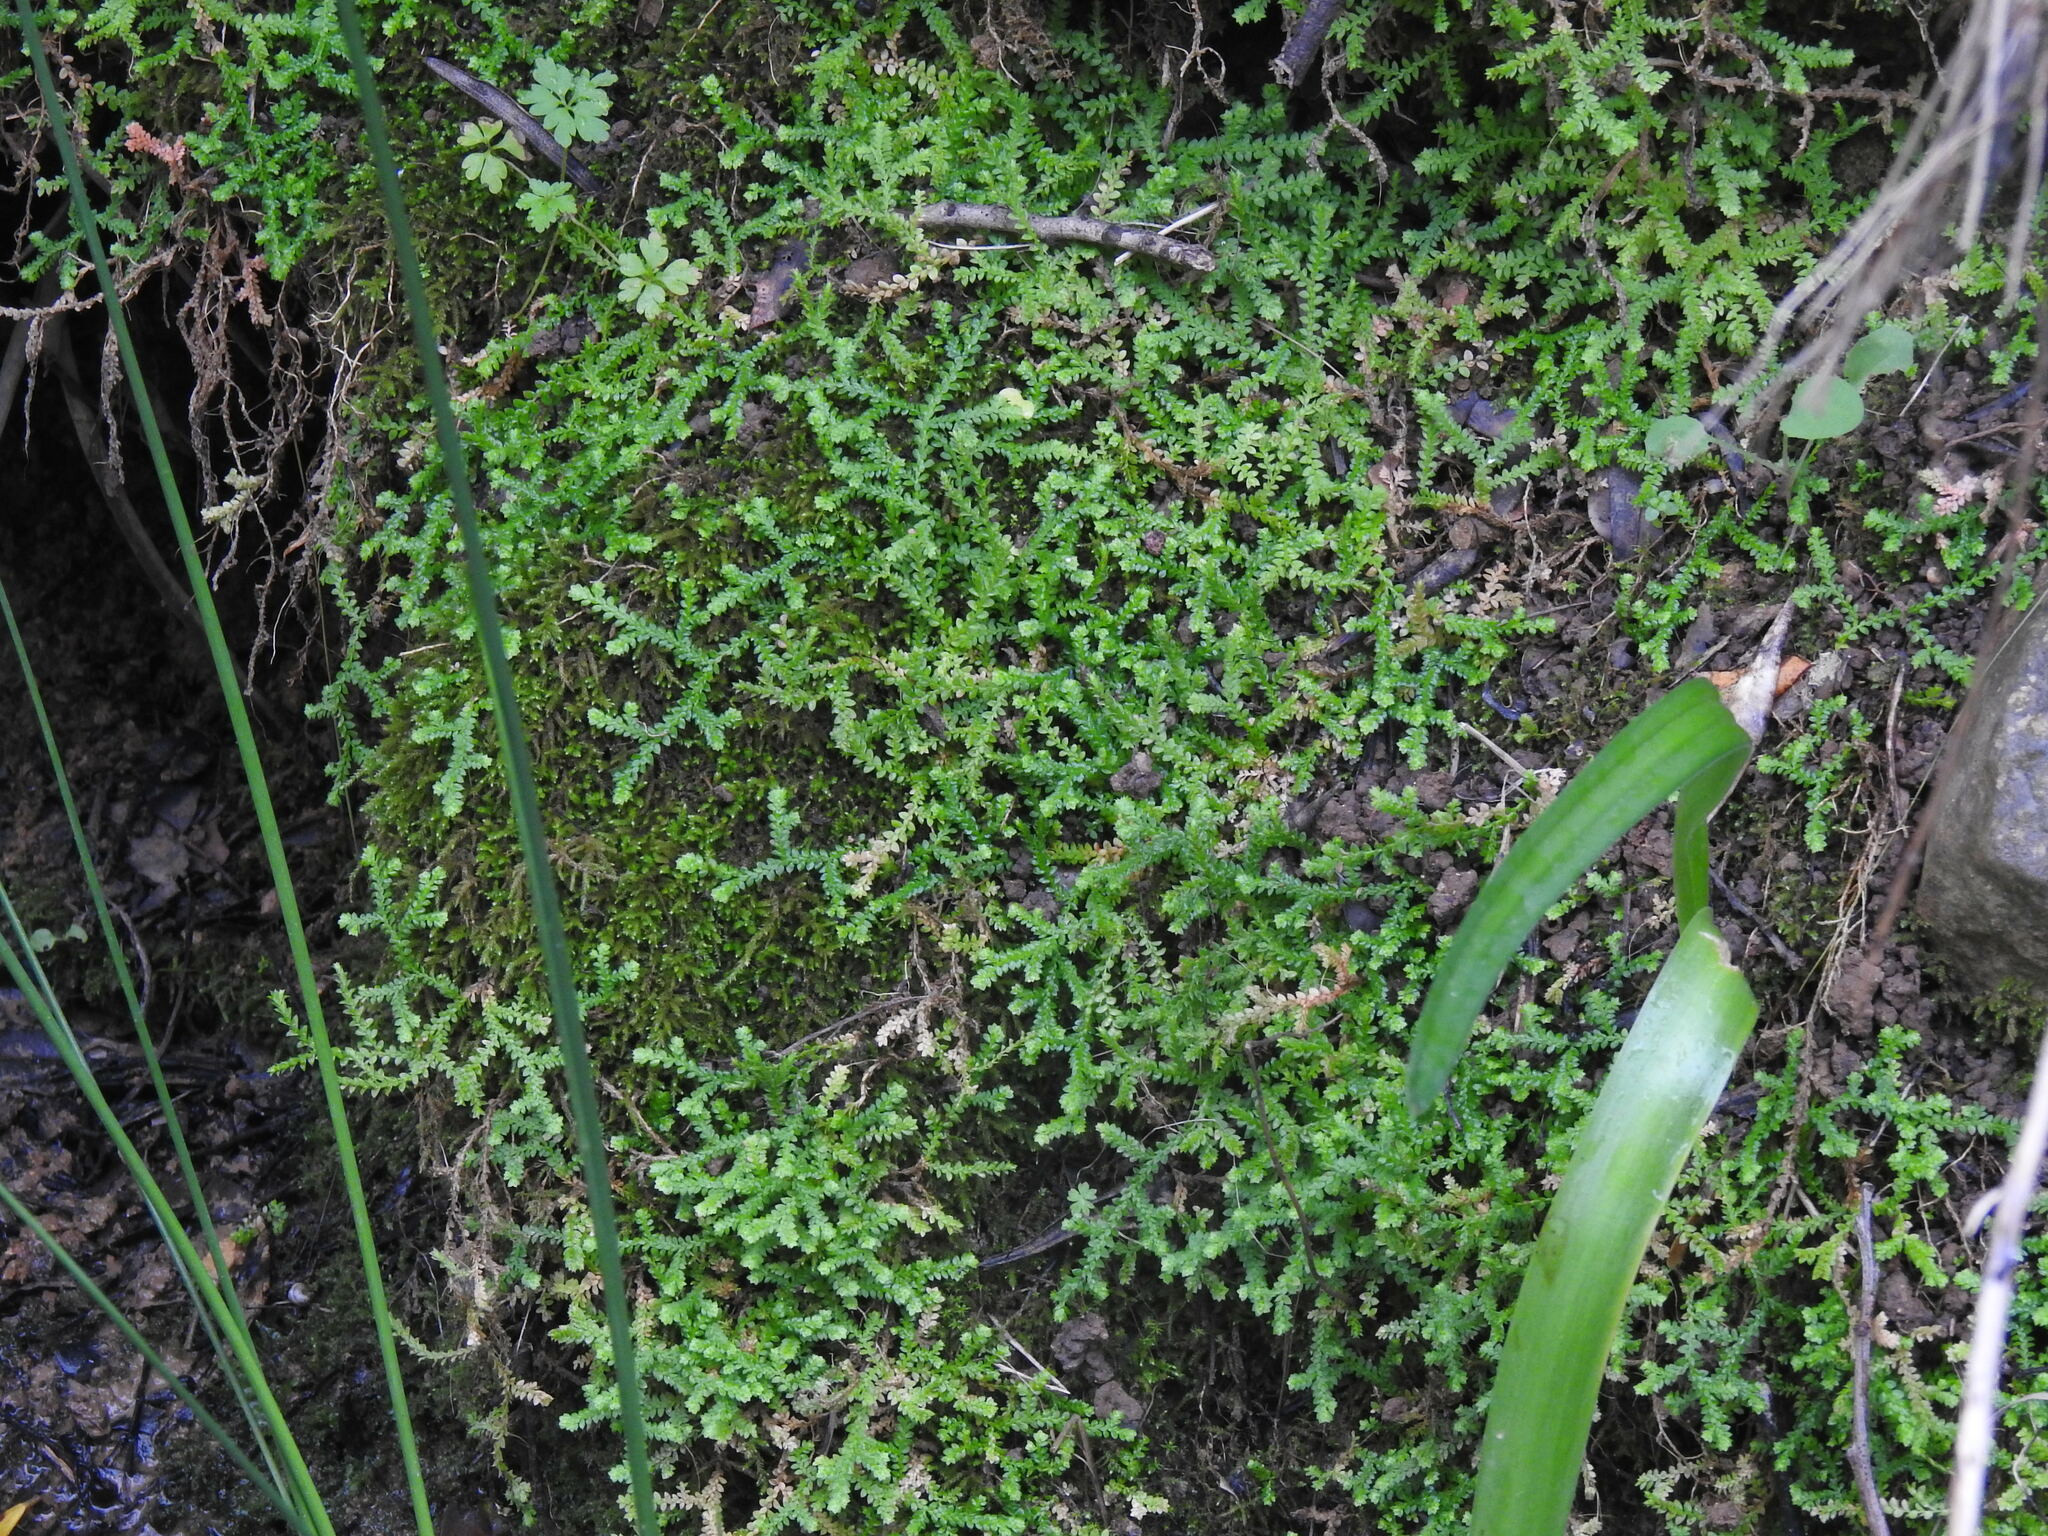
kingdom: Plantae
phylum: Tracheophyta
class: Lycopodiopsida
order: Selaginellales
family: Selaginellaceae
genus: Selaginella
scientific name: Selaginella denticulata
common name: Toothed-leaved clubmoss
